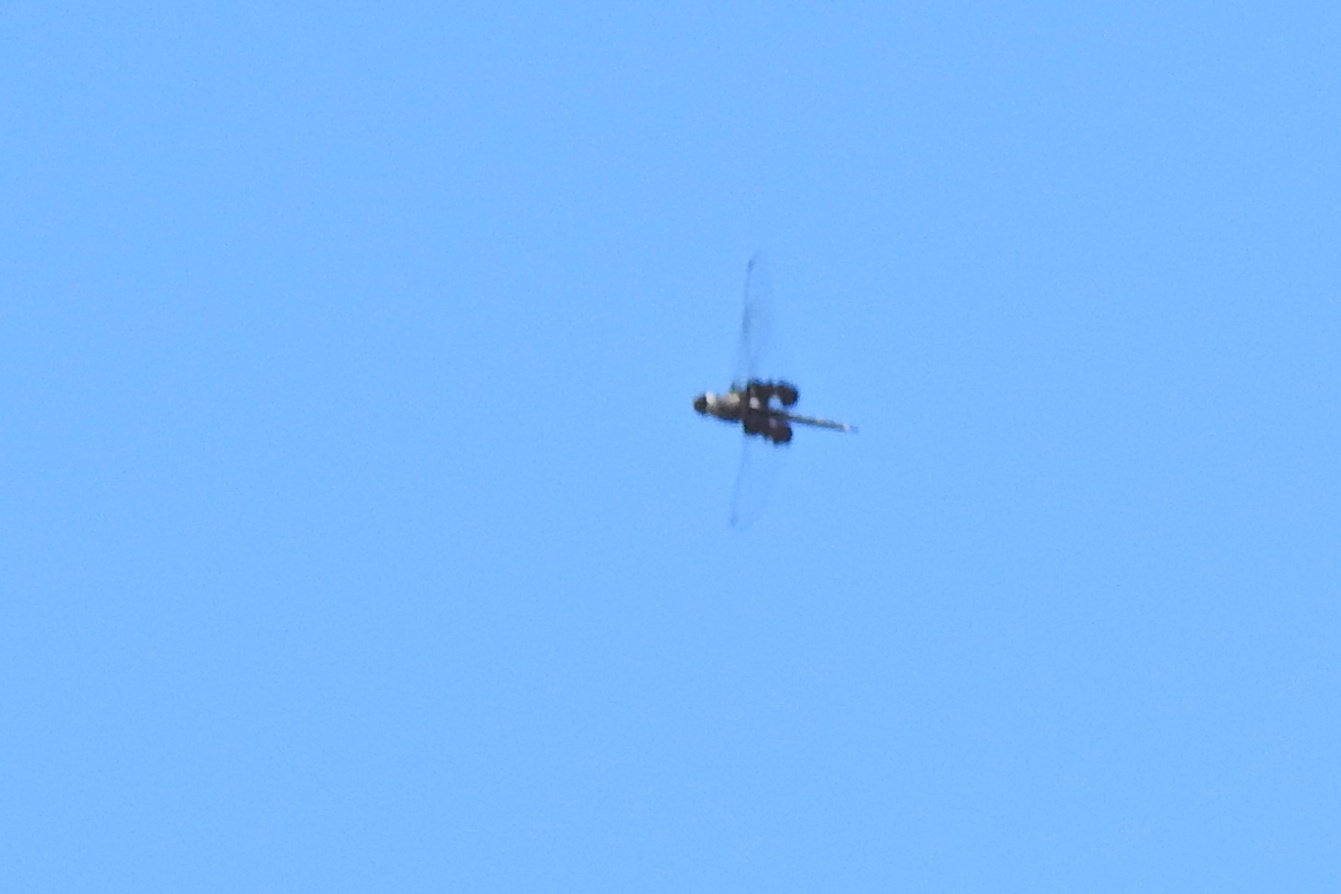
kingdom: Animalia
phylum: Arthropoda
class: Insecta
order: Odonata
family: Libellulidae
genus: Tramea
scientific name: Tramea lacerata
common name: Black saddlebags
